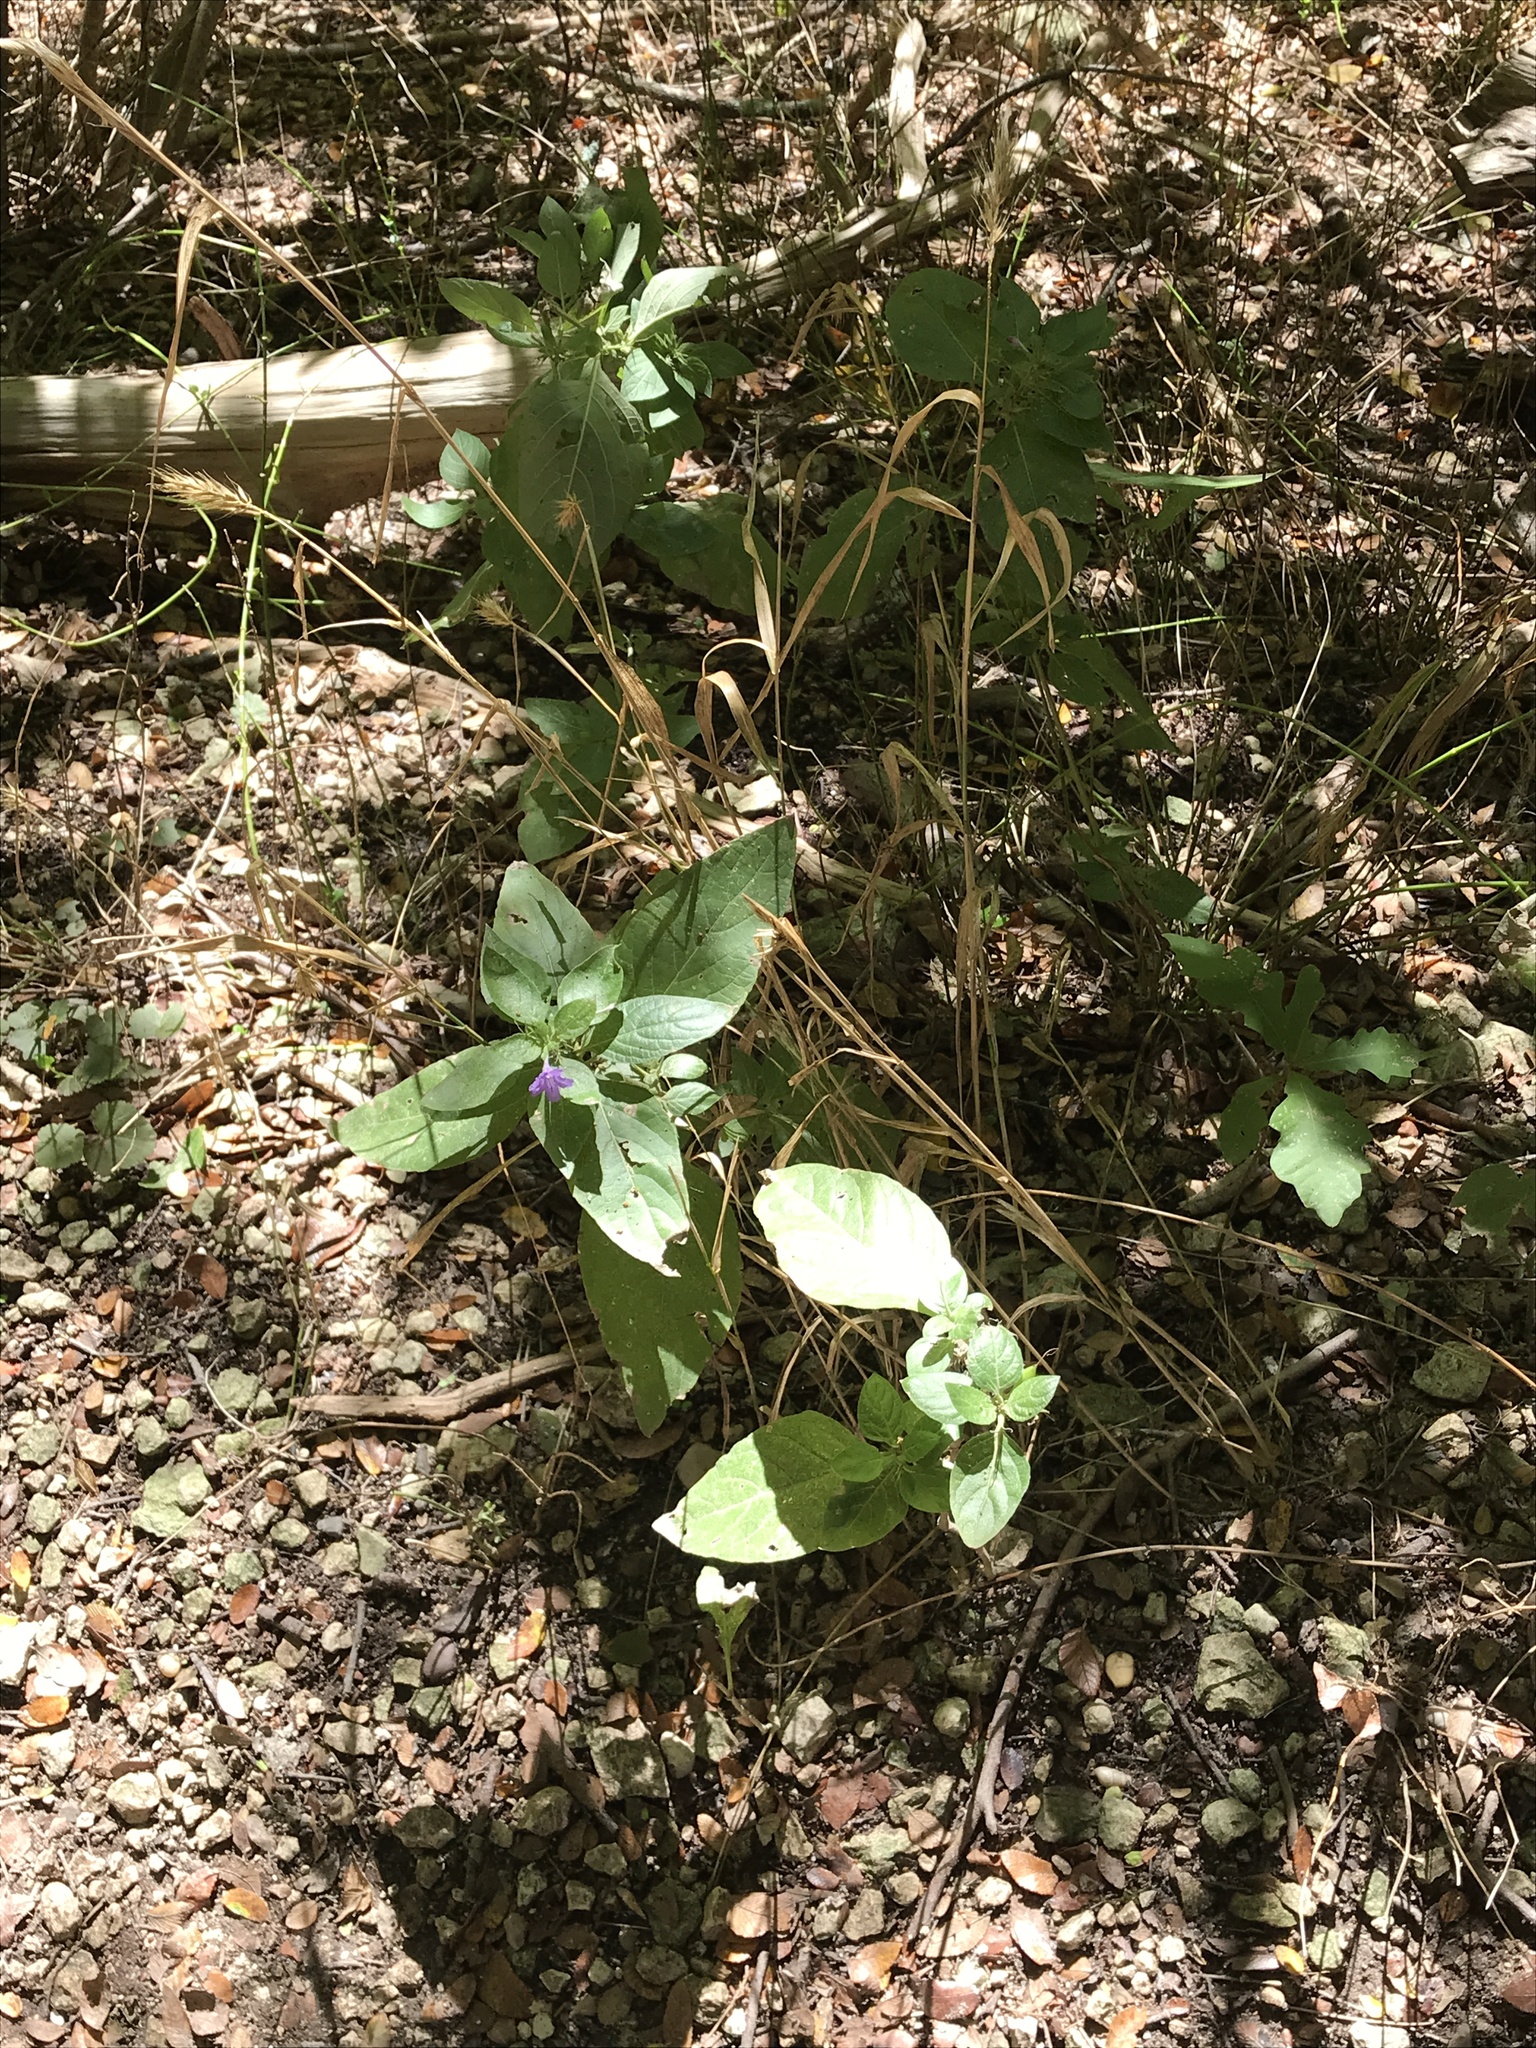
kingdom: Plantae
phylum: Tracheophyta
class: Magnoliopsida
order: Lamiales
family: Acanthaceae
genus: Ruellia
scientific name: Ruellia drummondiana
